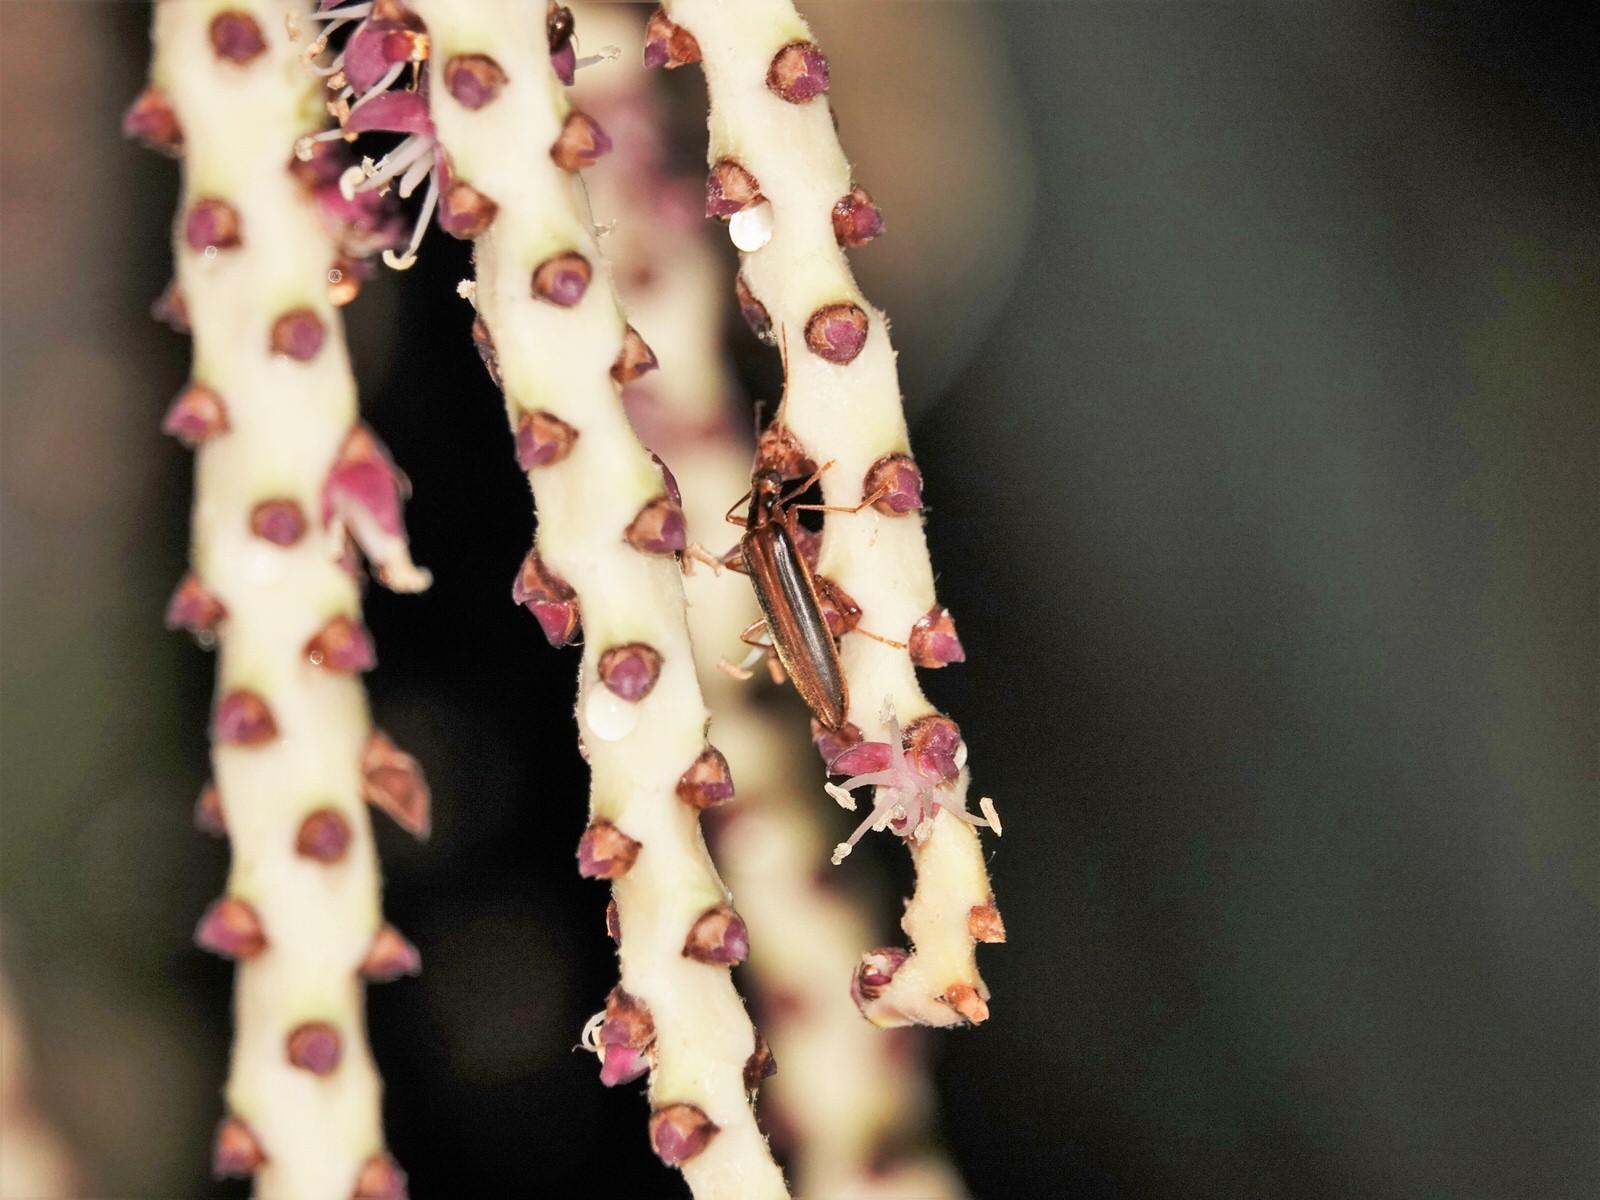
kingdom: Animalia
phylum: Arthropoda
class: Insecta
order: Coleoptera
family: Oedemeridae
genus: Thelyphassa
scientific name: Thelyphassa
